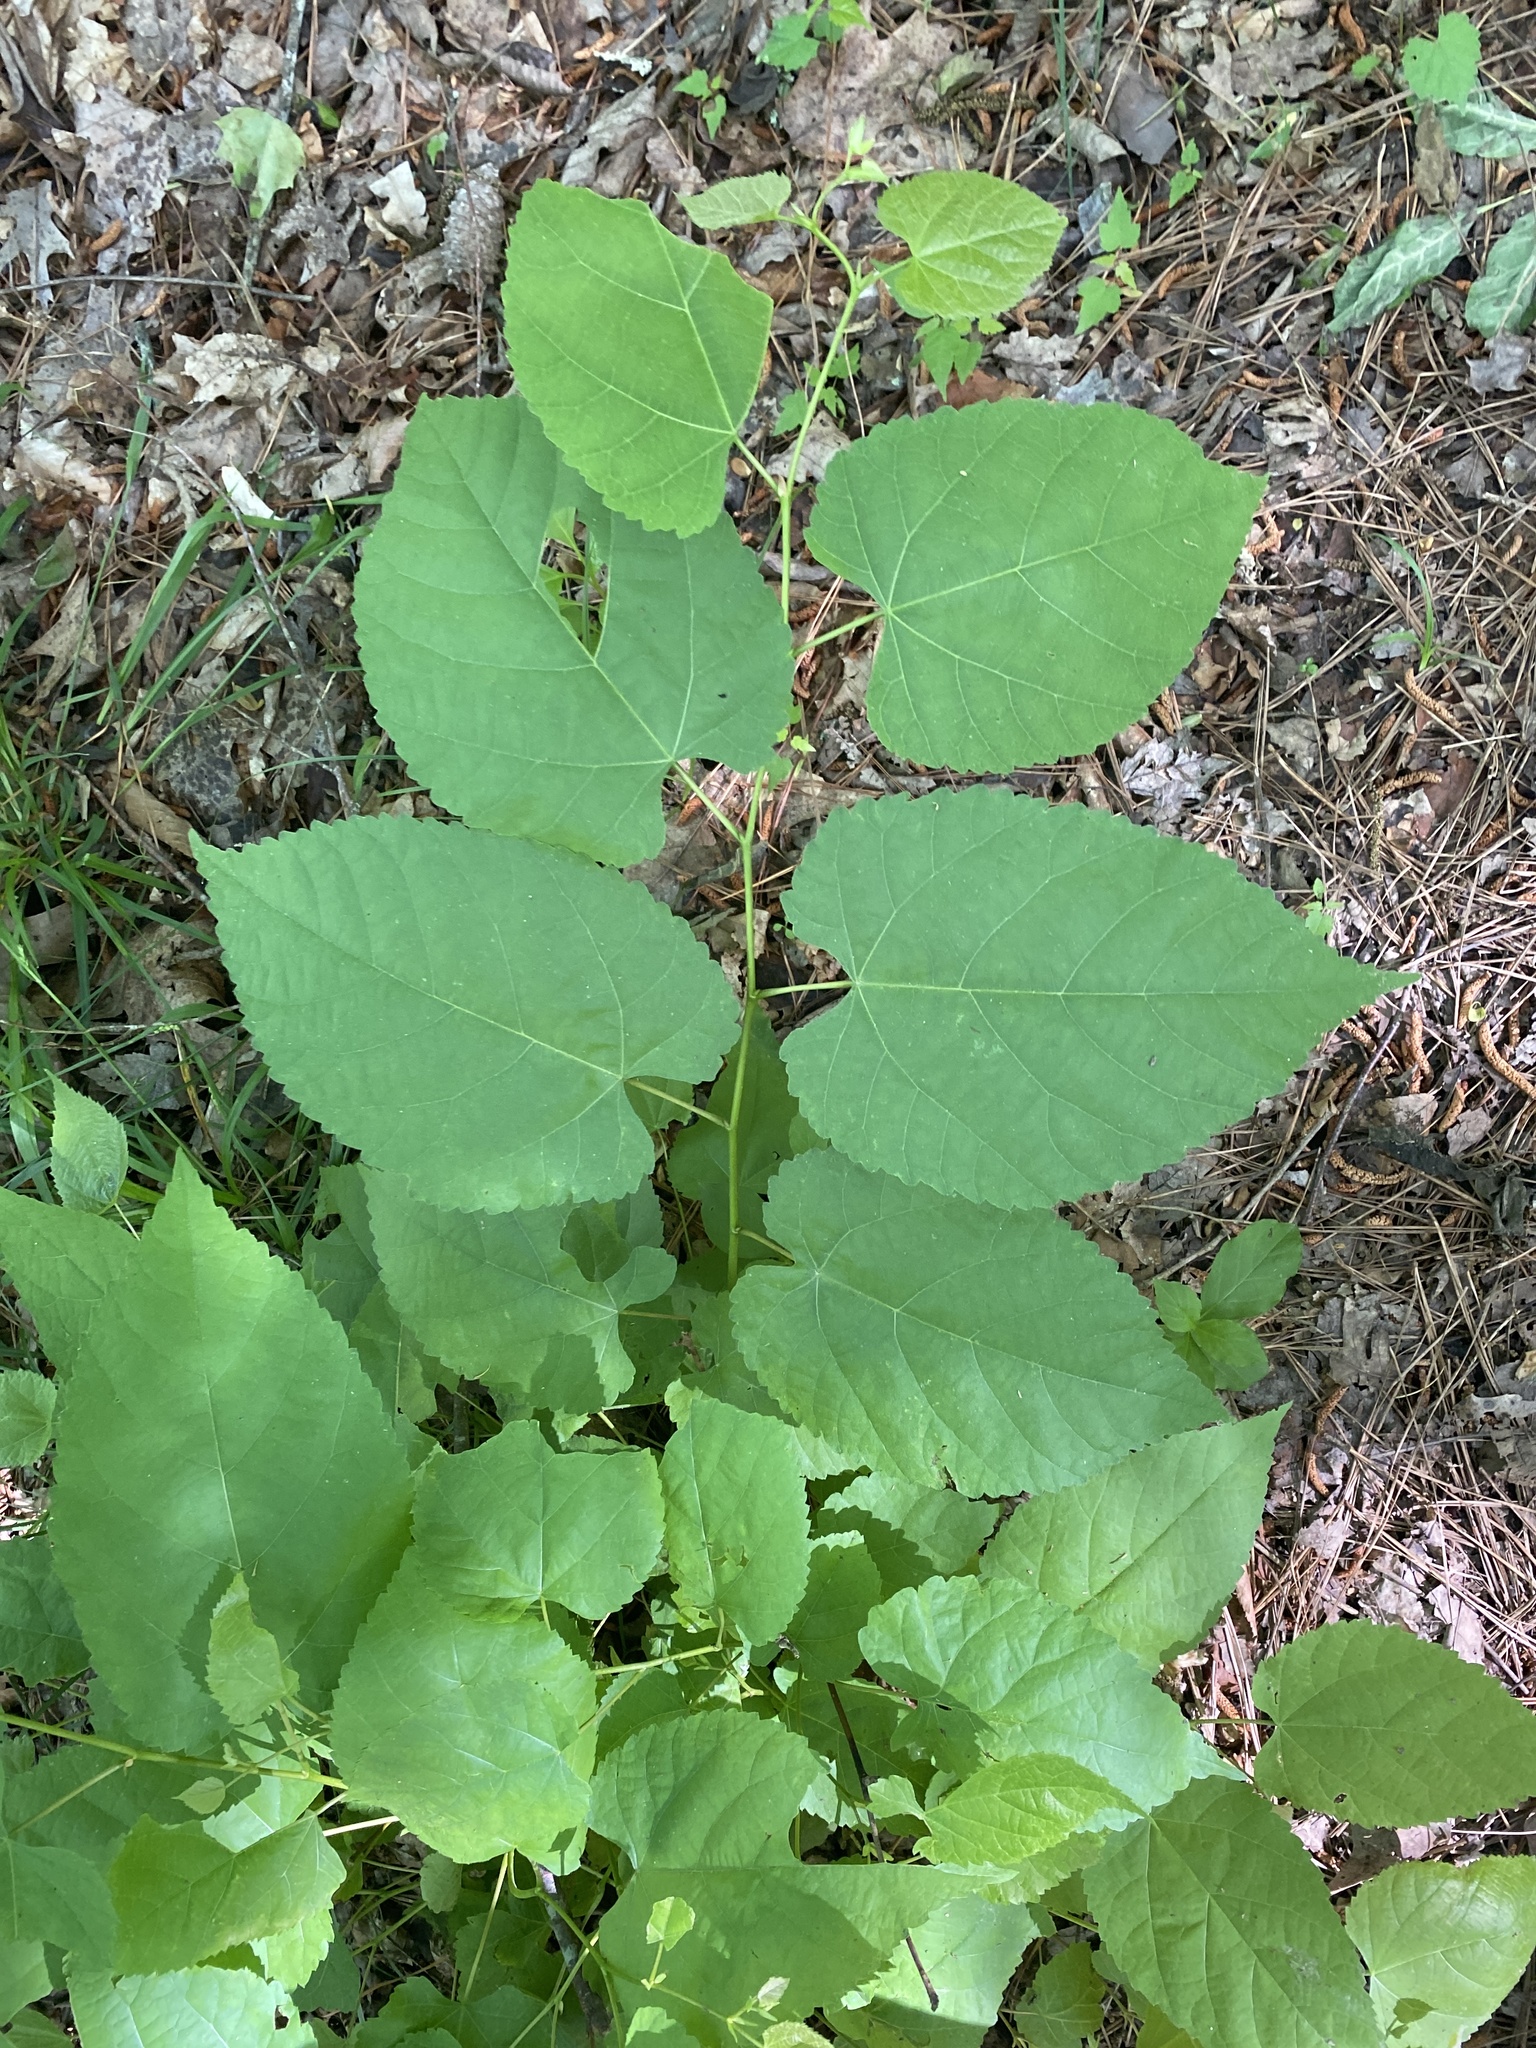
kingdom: Plantae
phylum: Tracheophyta
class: Magnoliopsida
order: Malvales
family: Malvaceae
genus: Tilia
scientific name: Tilia americana
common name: Basswood
